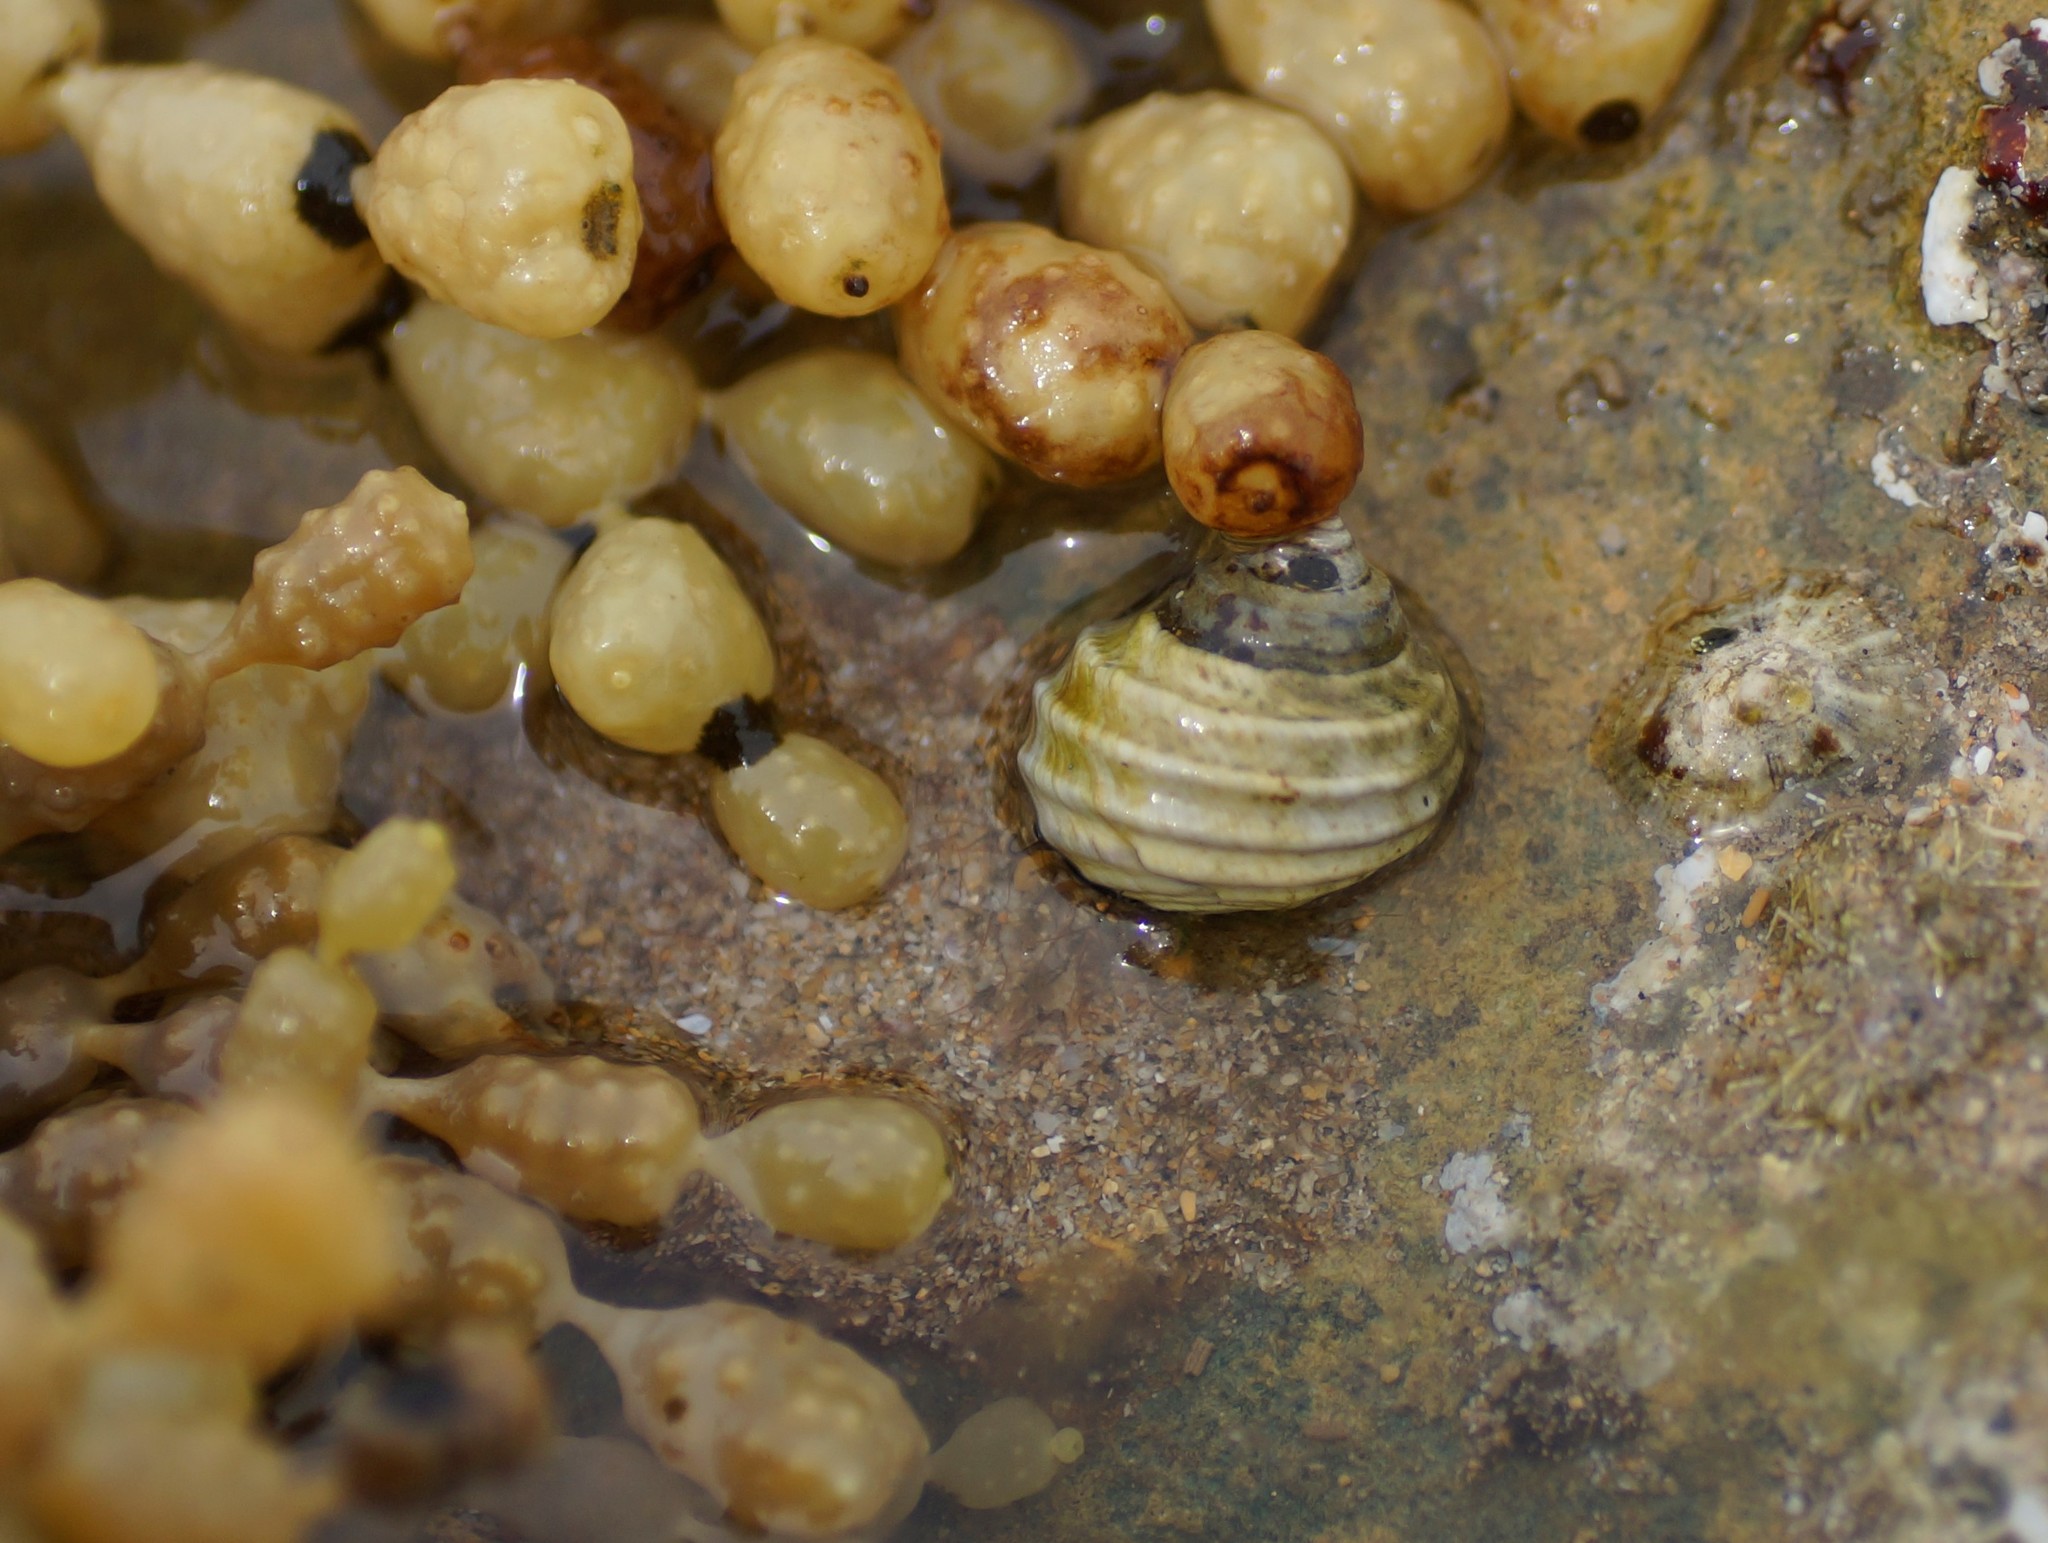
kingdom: Animalia
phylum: Mollusca
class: Gastropoda
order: Trochida
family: Trochidae
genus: Austrocochlea
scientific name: Austrocochlea constricta
